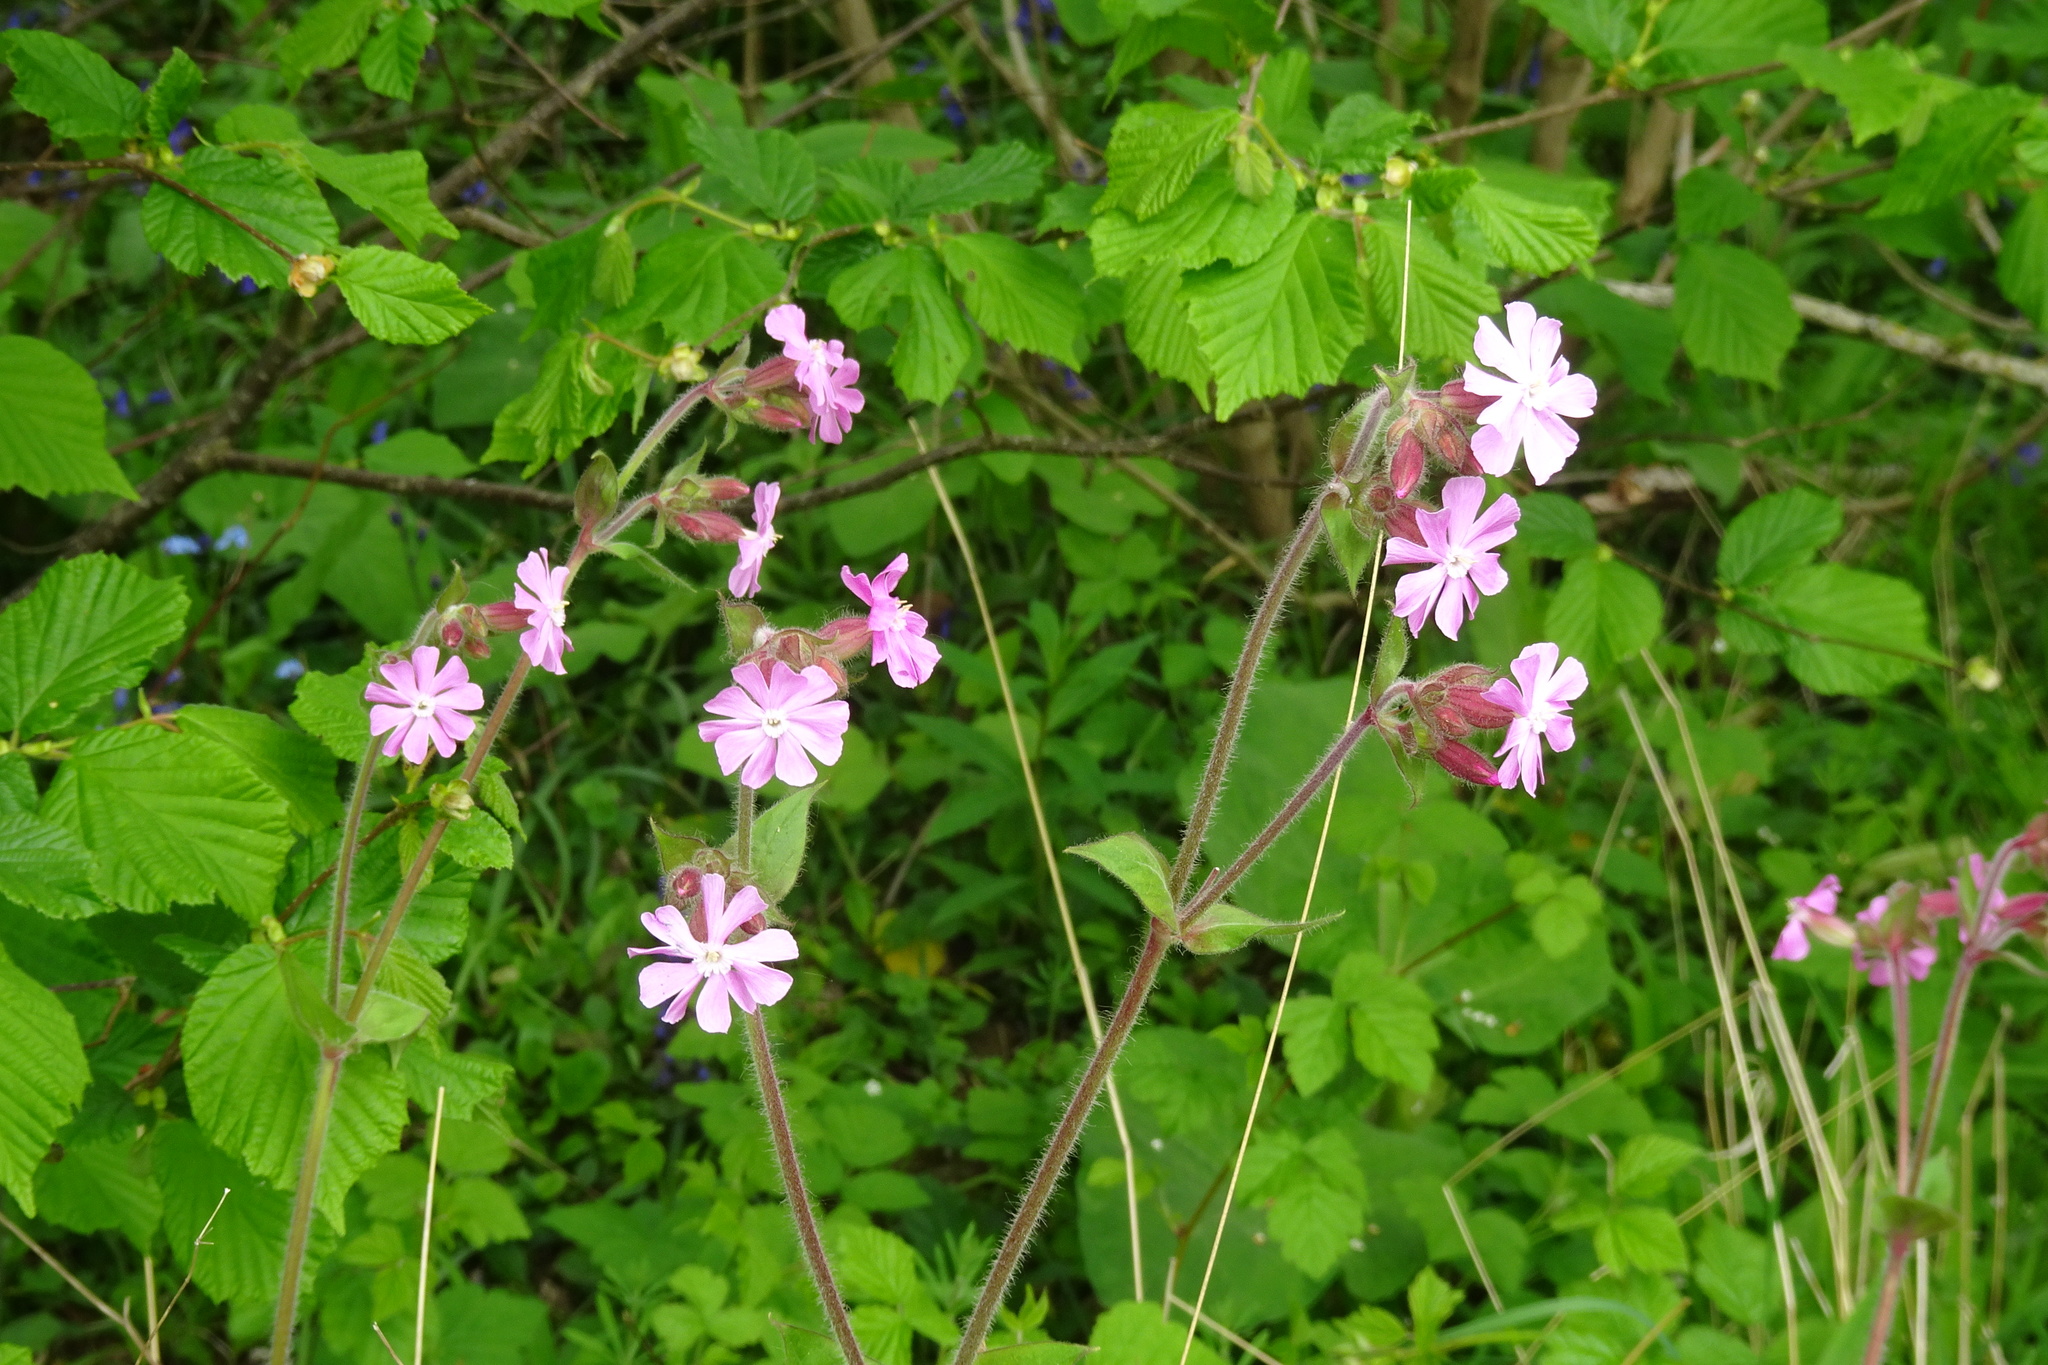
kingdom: Plantae
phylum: Tracheophyta
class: Magnoliopsida
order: Caryophyllales
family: Caryophyllaceae
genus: Silene
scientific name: Silene dioica
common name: Red campion
